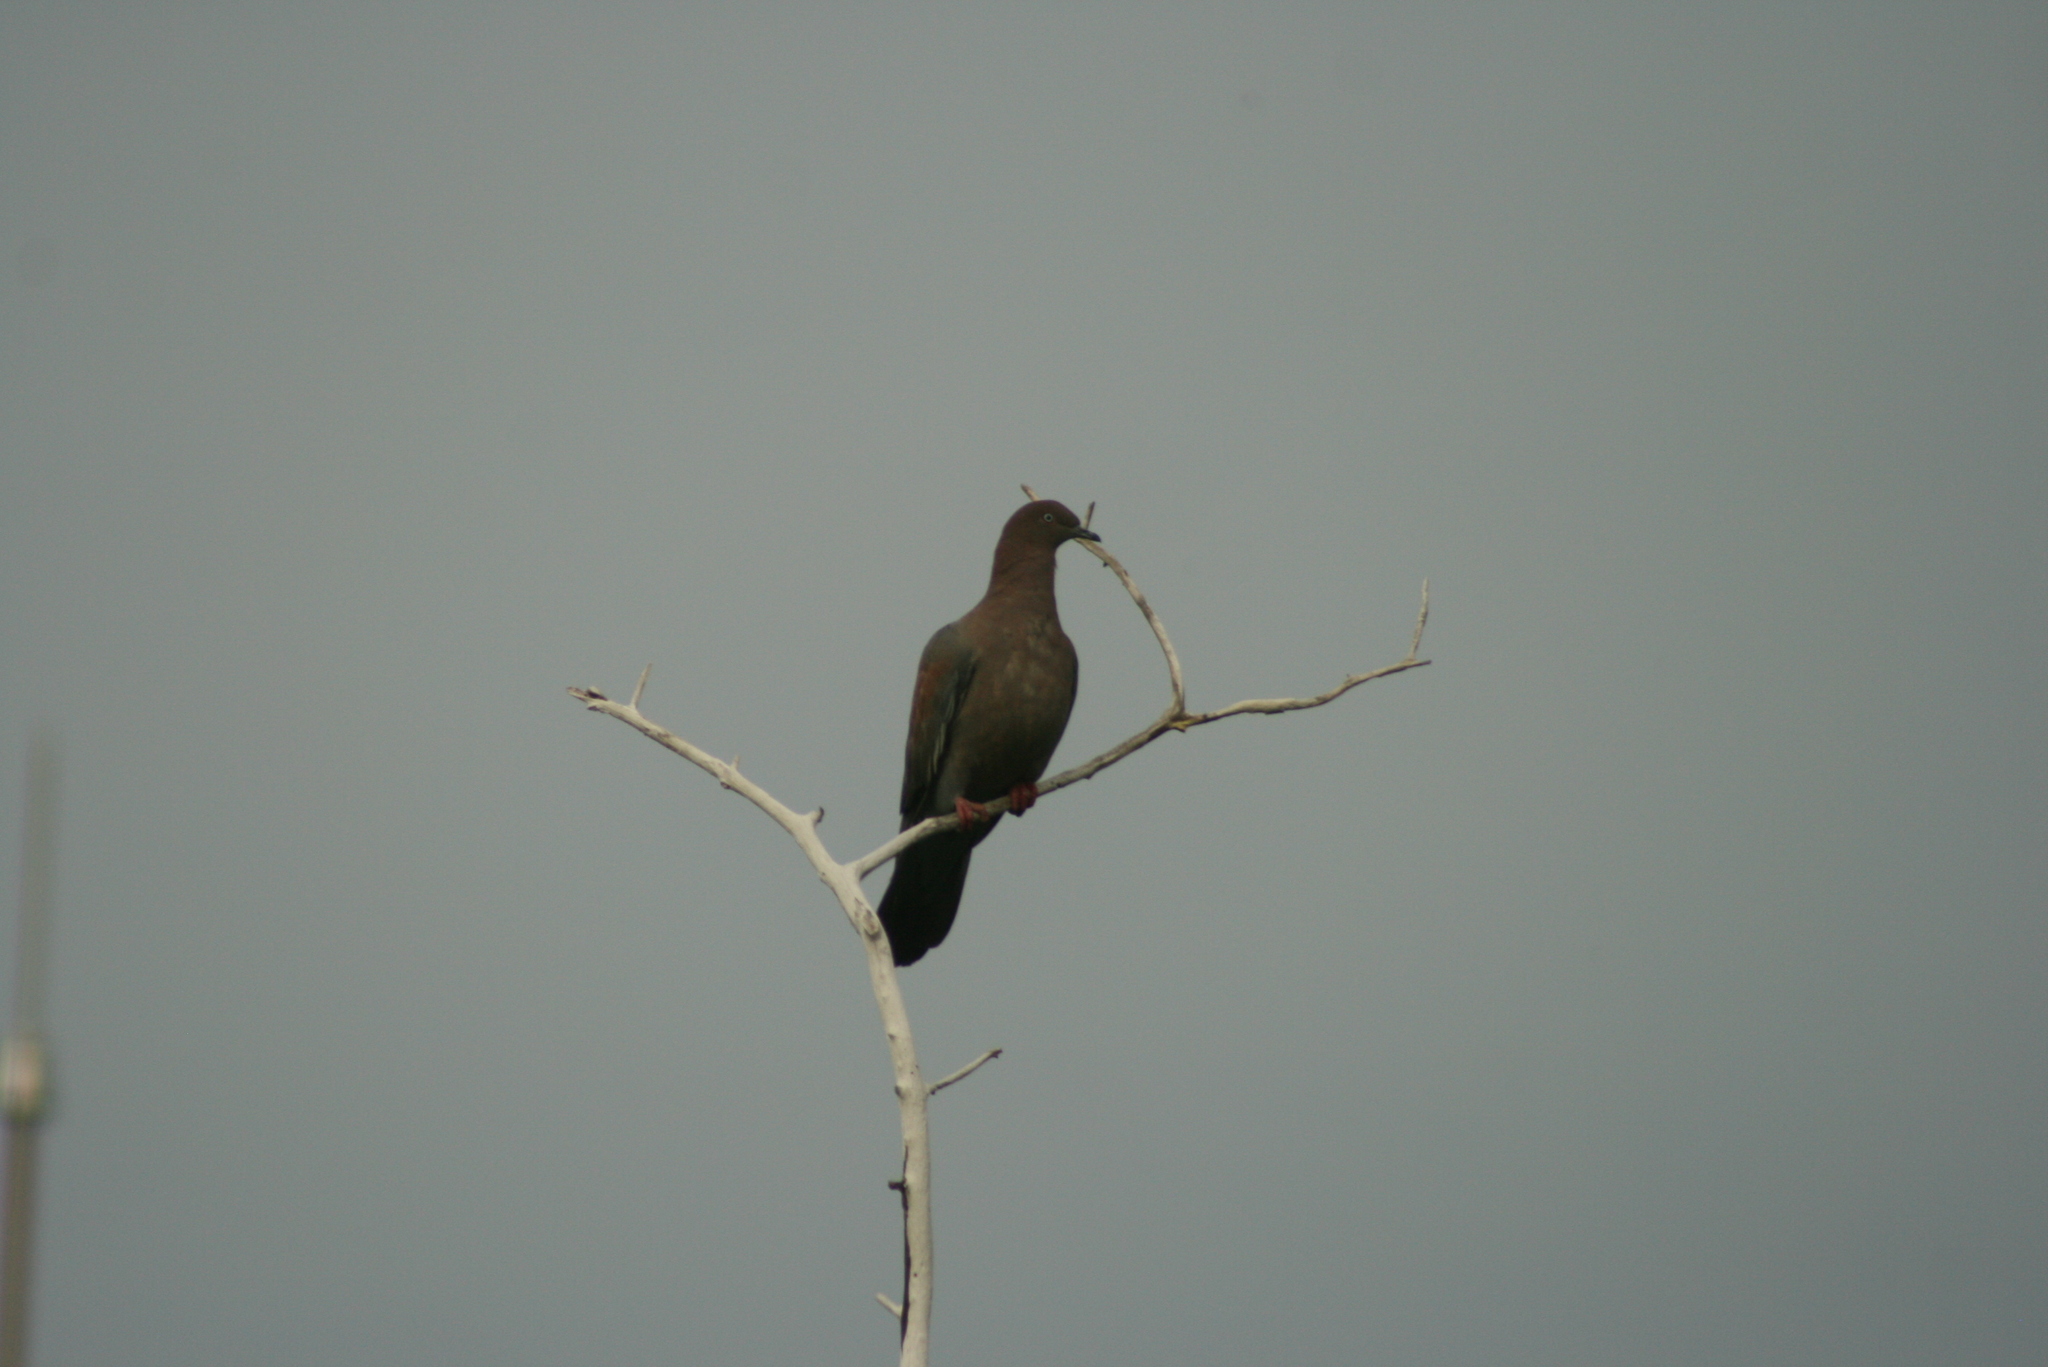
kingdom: Animalia
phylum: Chordata
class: Aves
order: Columbiformes
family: Columbidae
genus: Patagioenas
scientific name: Patagioenas inornata
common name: Plain pigeon
